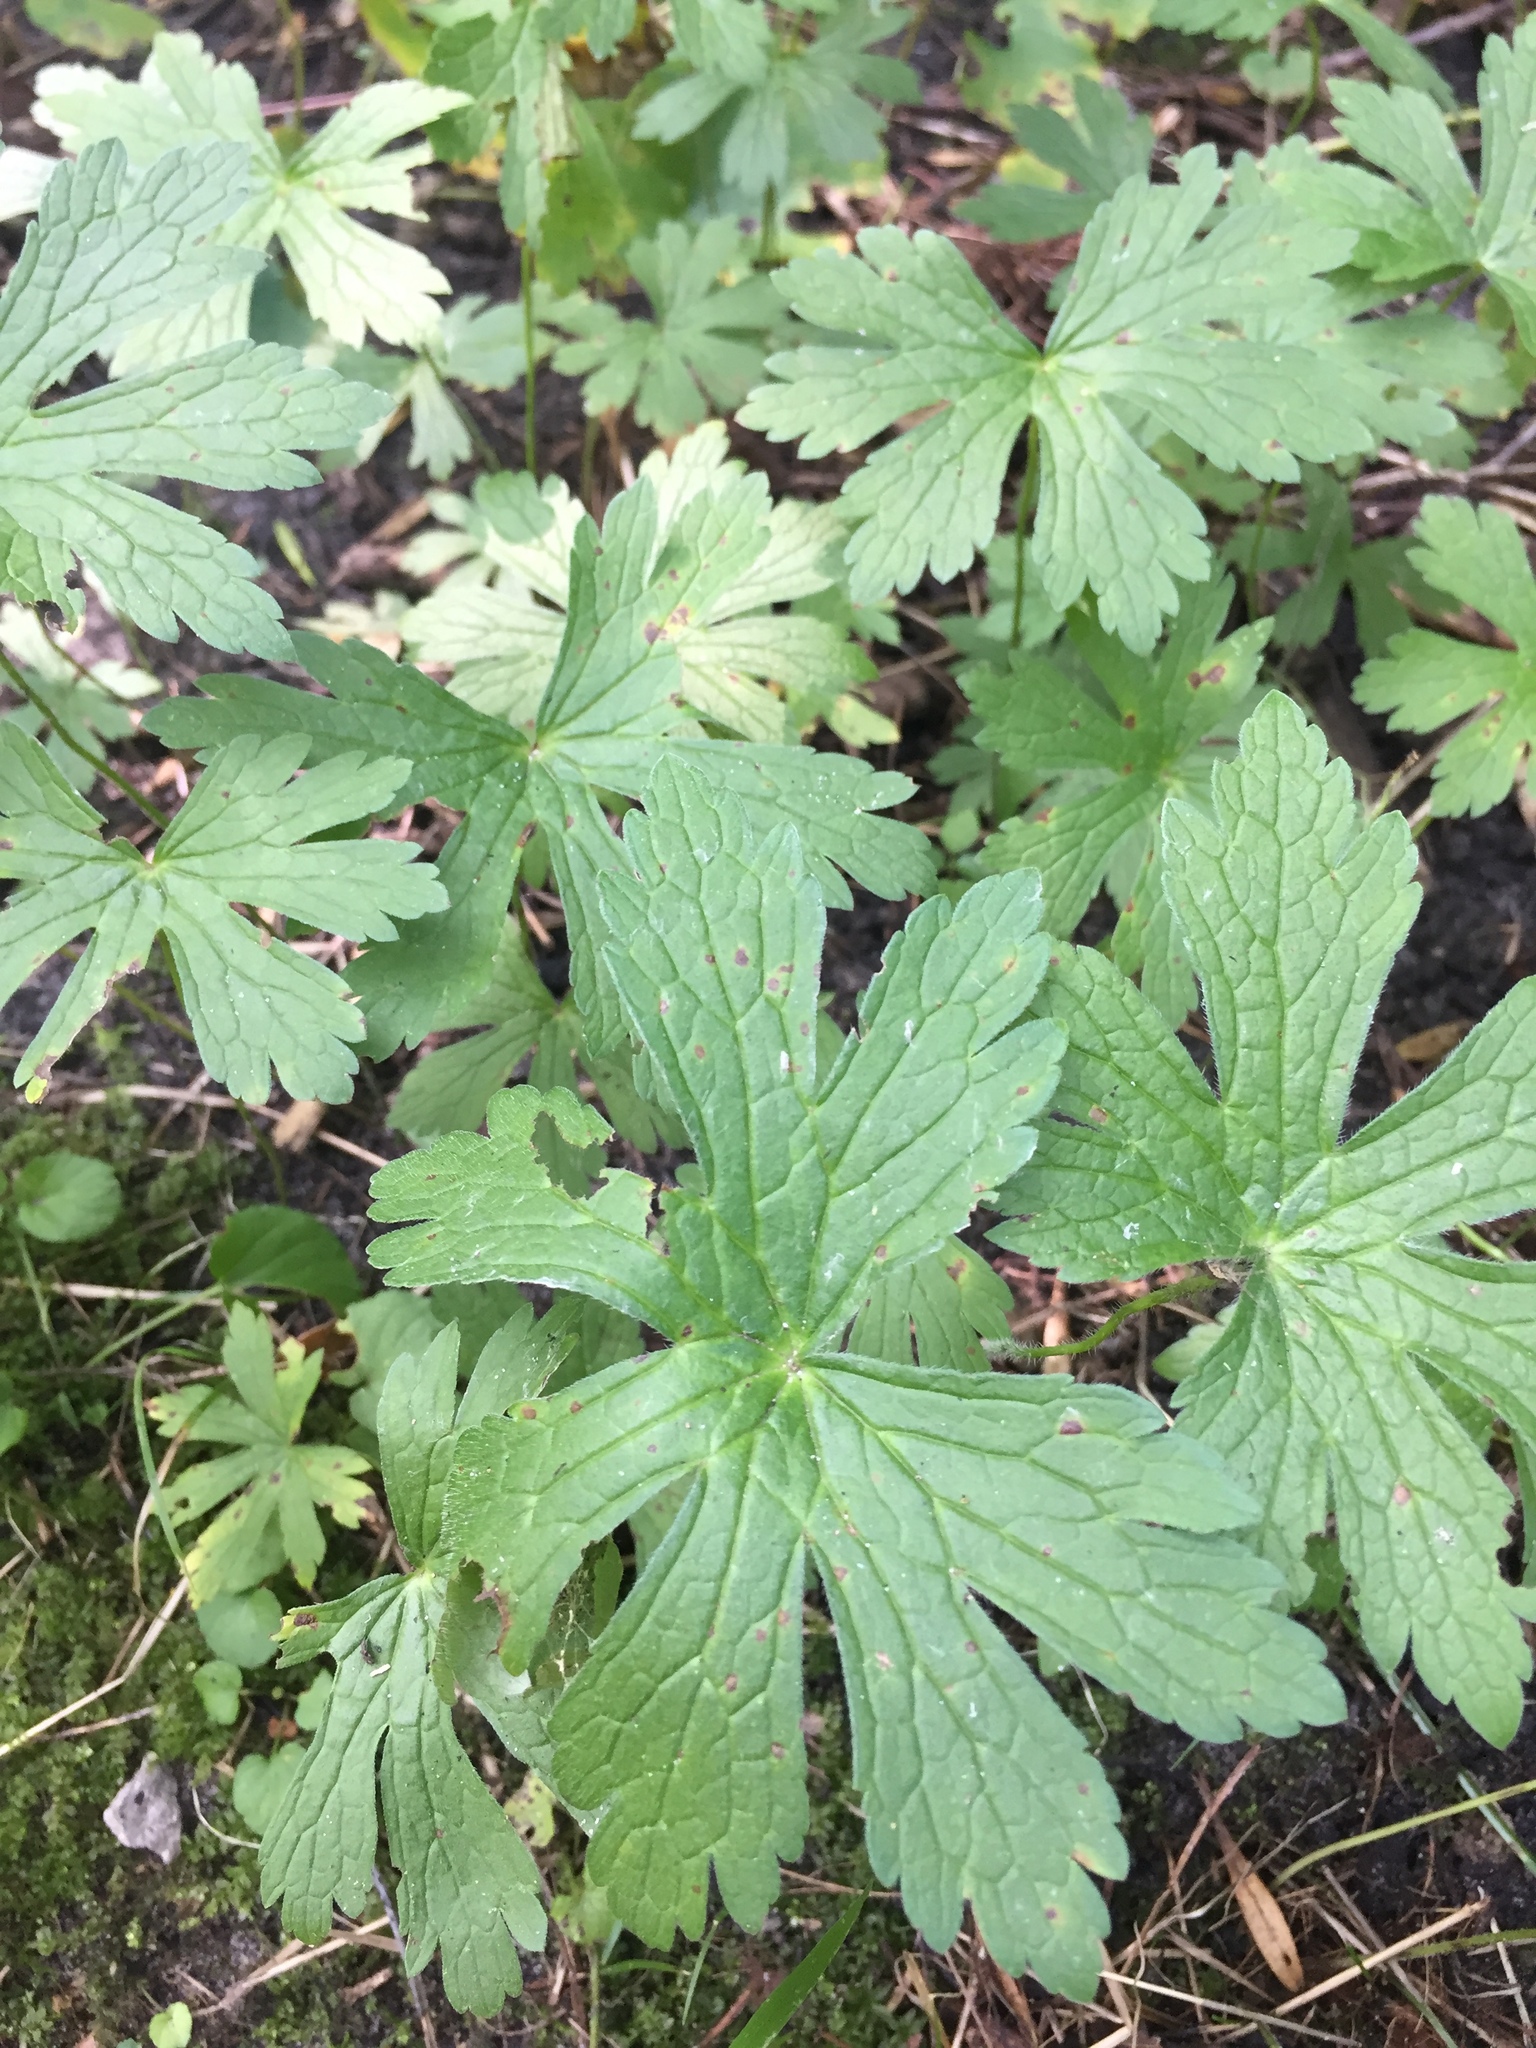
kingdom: Plantae
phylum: Tracheophyta
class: Magnoliopsida
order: Geraniales
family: Geraniaceae
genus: Geranium
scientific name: Geranium maculatum
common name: Spotted geranium
